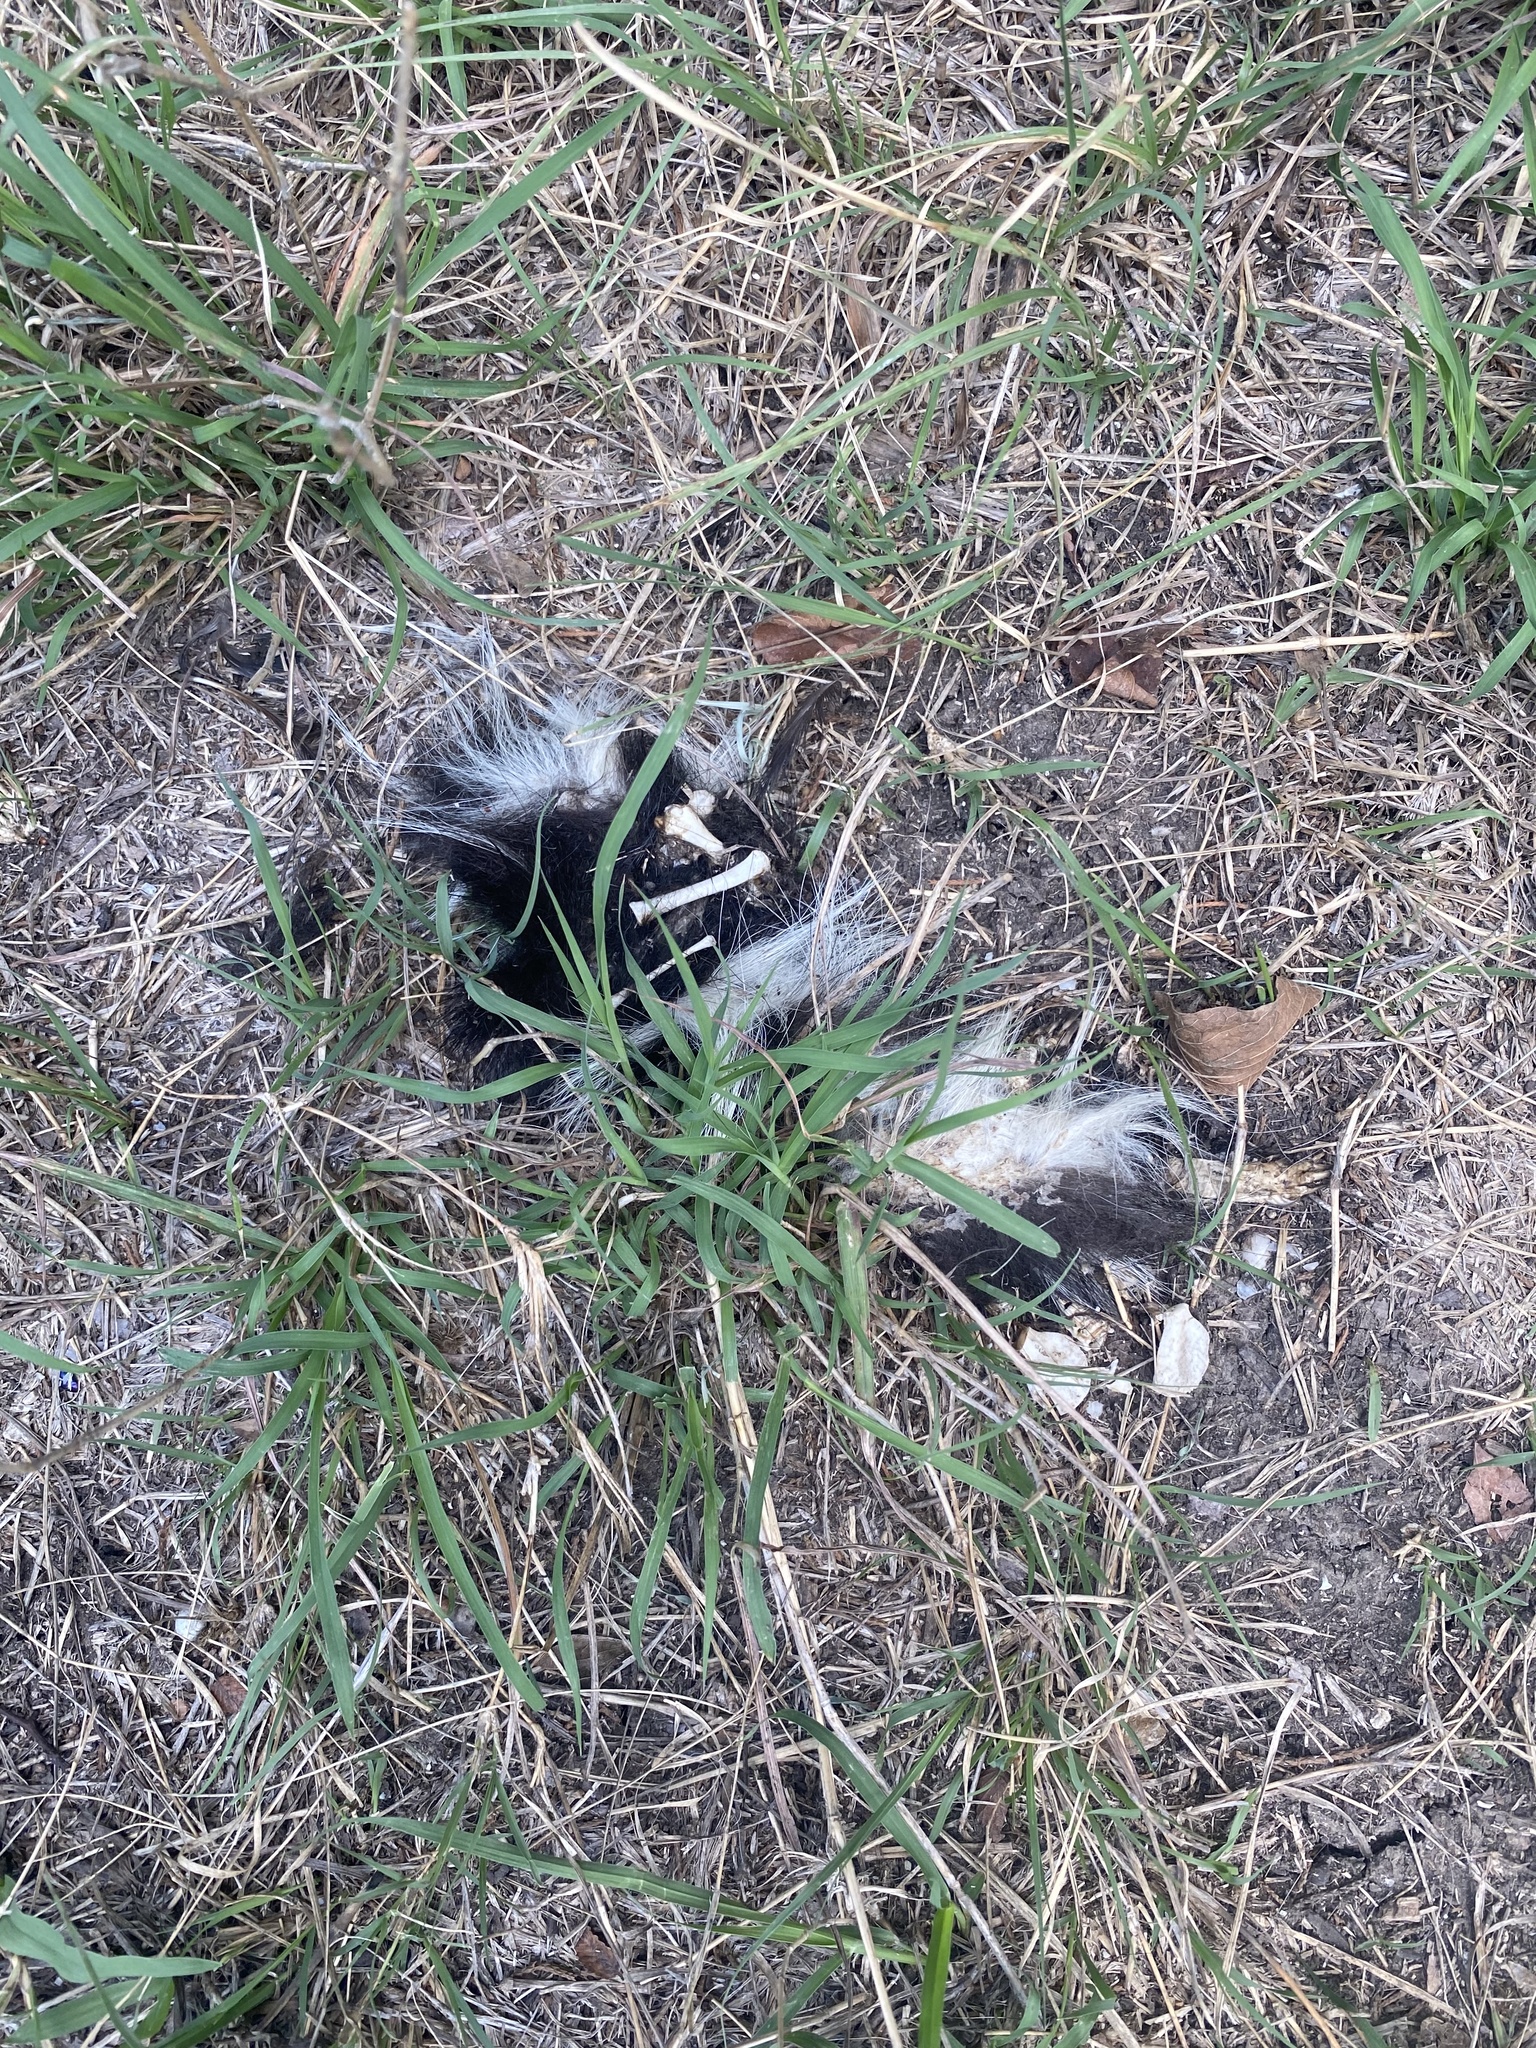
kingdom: Animalia
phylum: Chordata
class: Mammalia
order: Carnivora
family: Mephitidae
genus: Mephitis
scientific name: Mephitis mephitis
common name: Striped skunk
